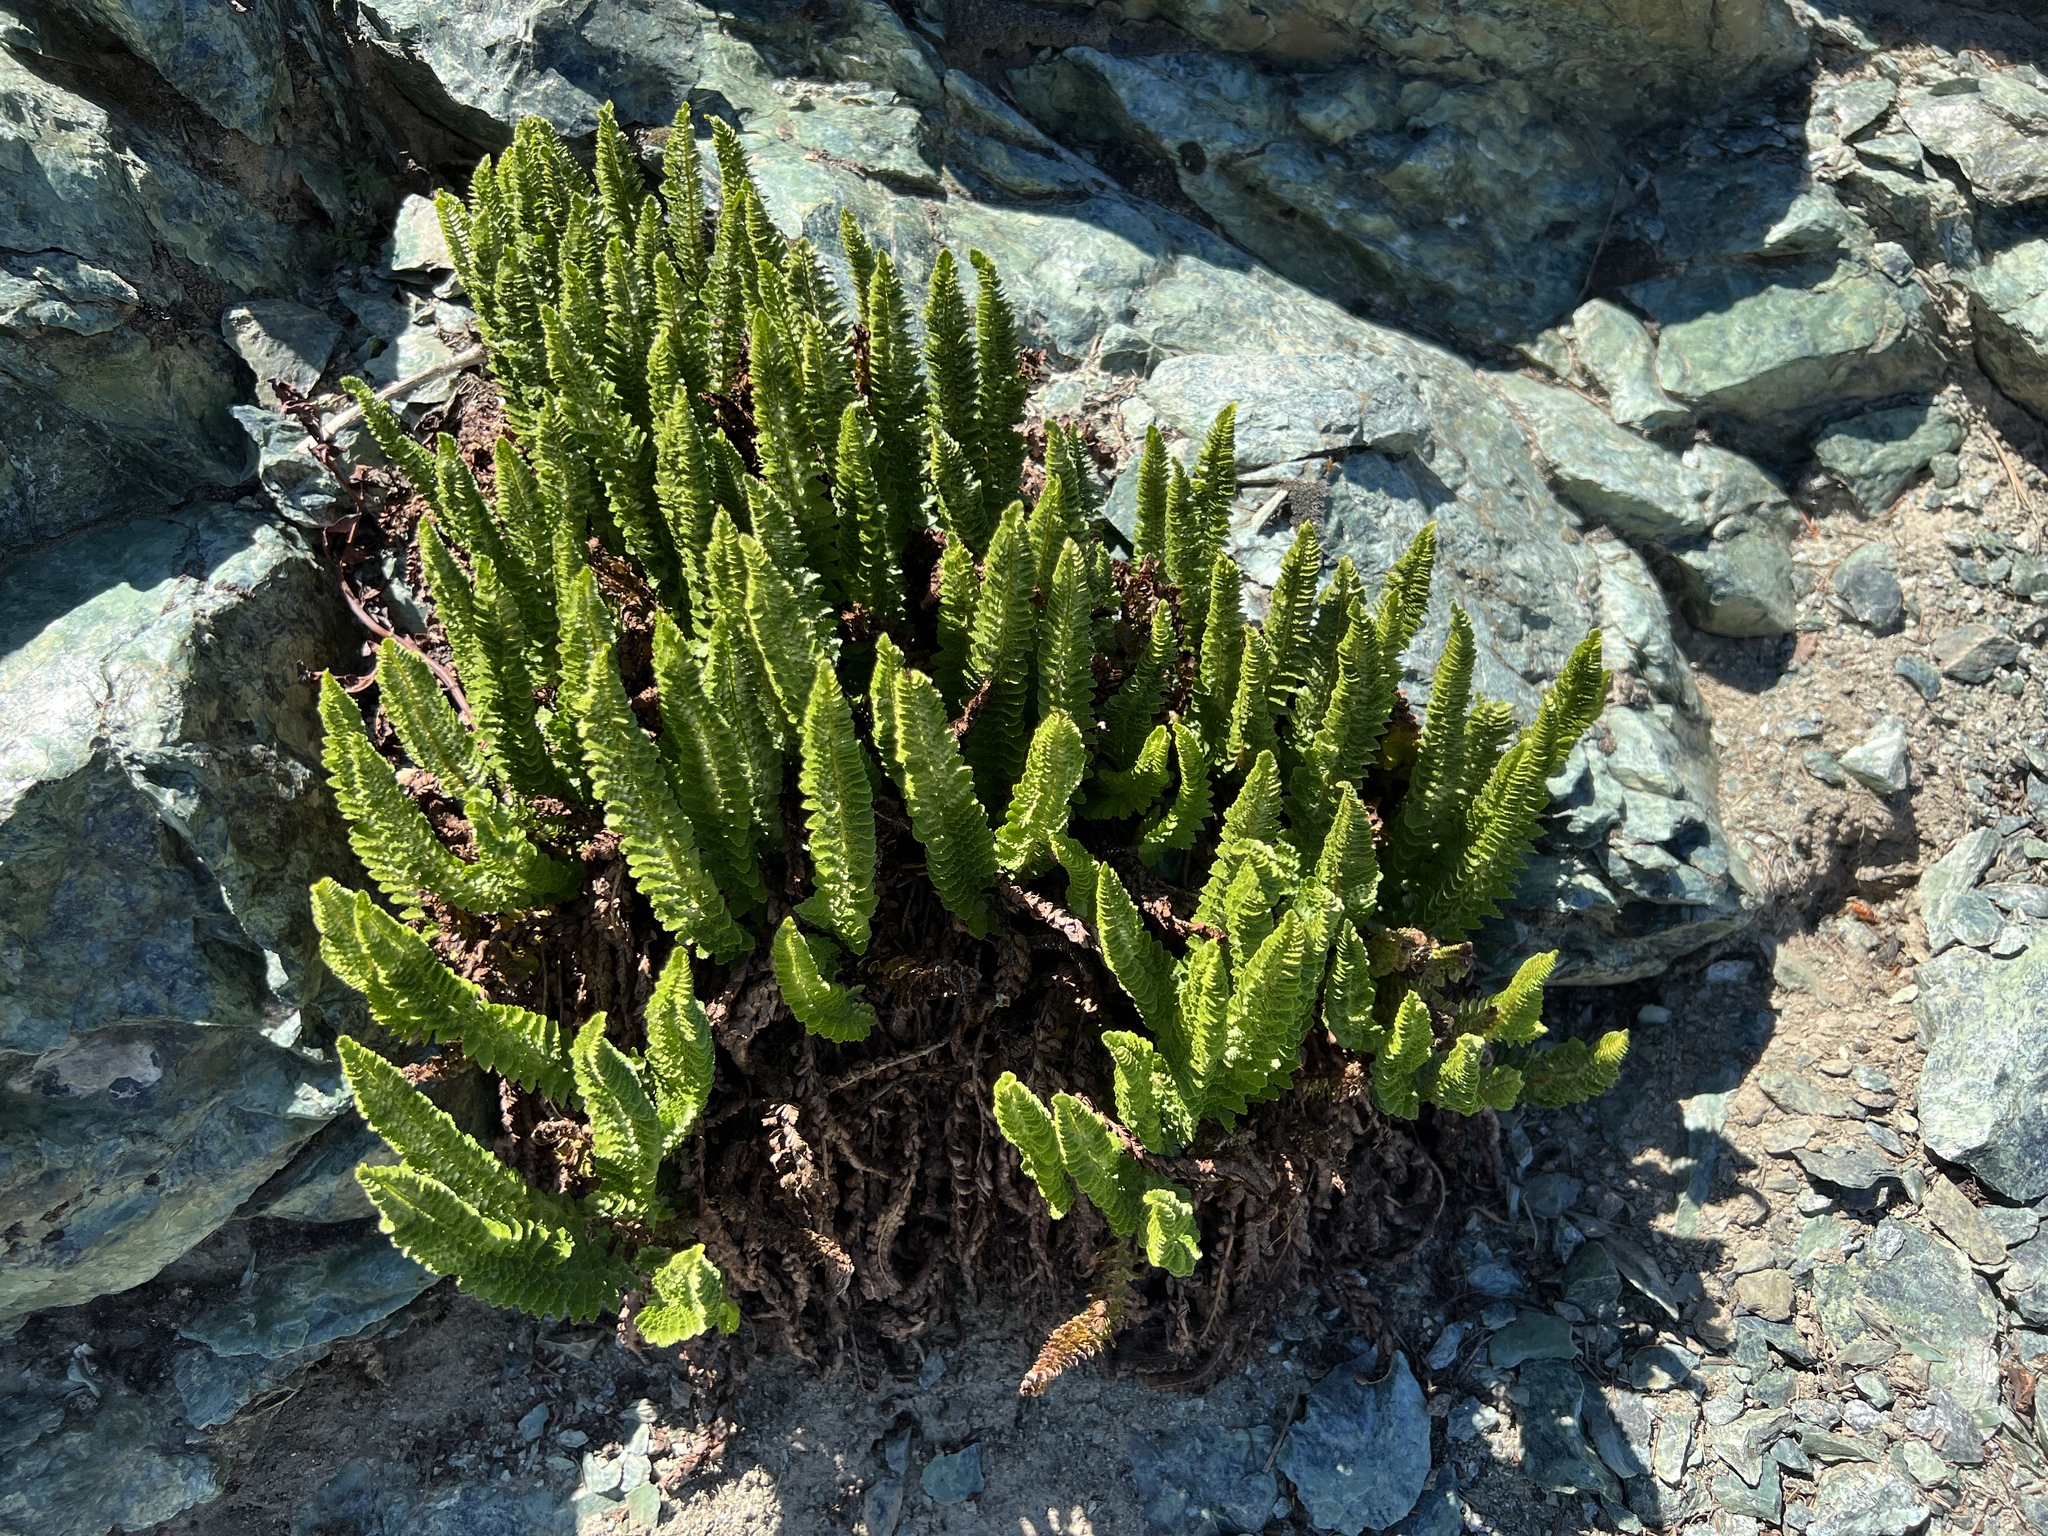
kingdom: Plantae
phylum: Tracheophyta
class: Polypodiopsida
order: Polypodiales
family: Dryopteridaceae
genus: Polystichum
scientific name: Polystichum lemmonii
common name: Lemmon's holly fern
